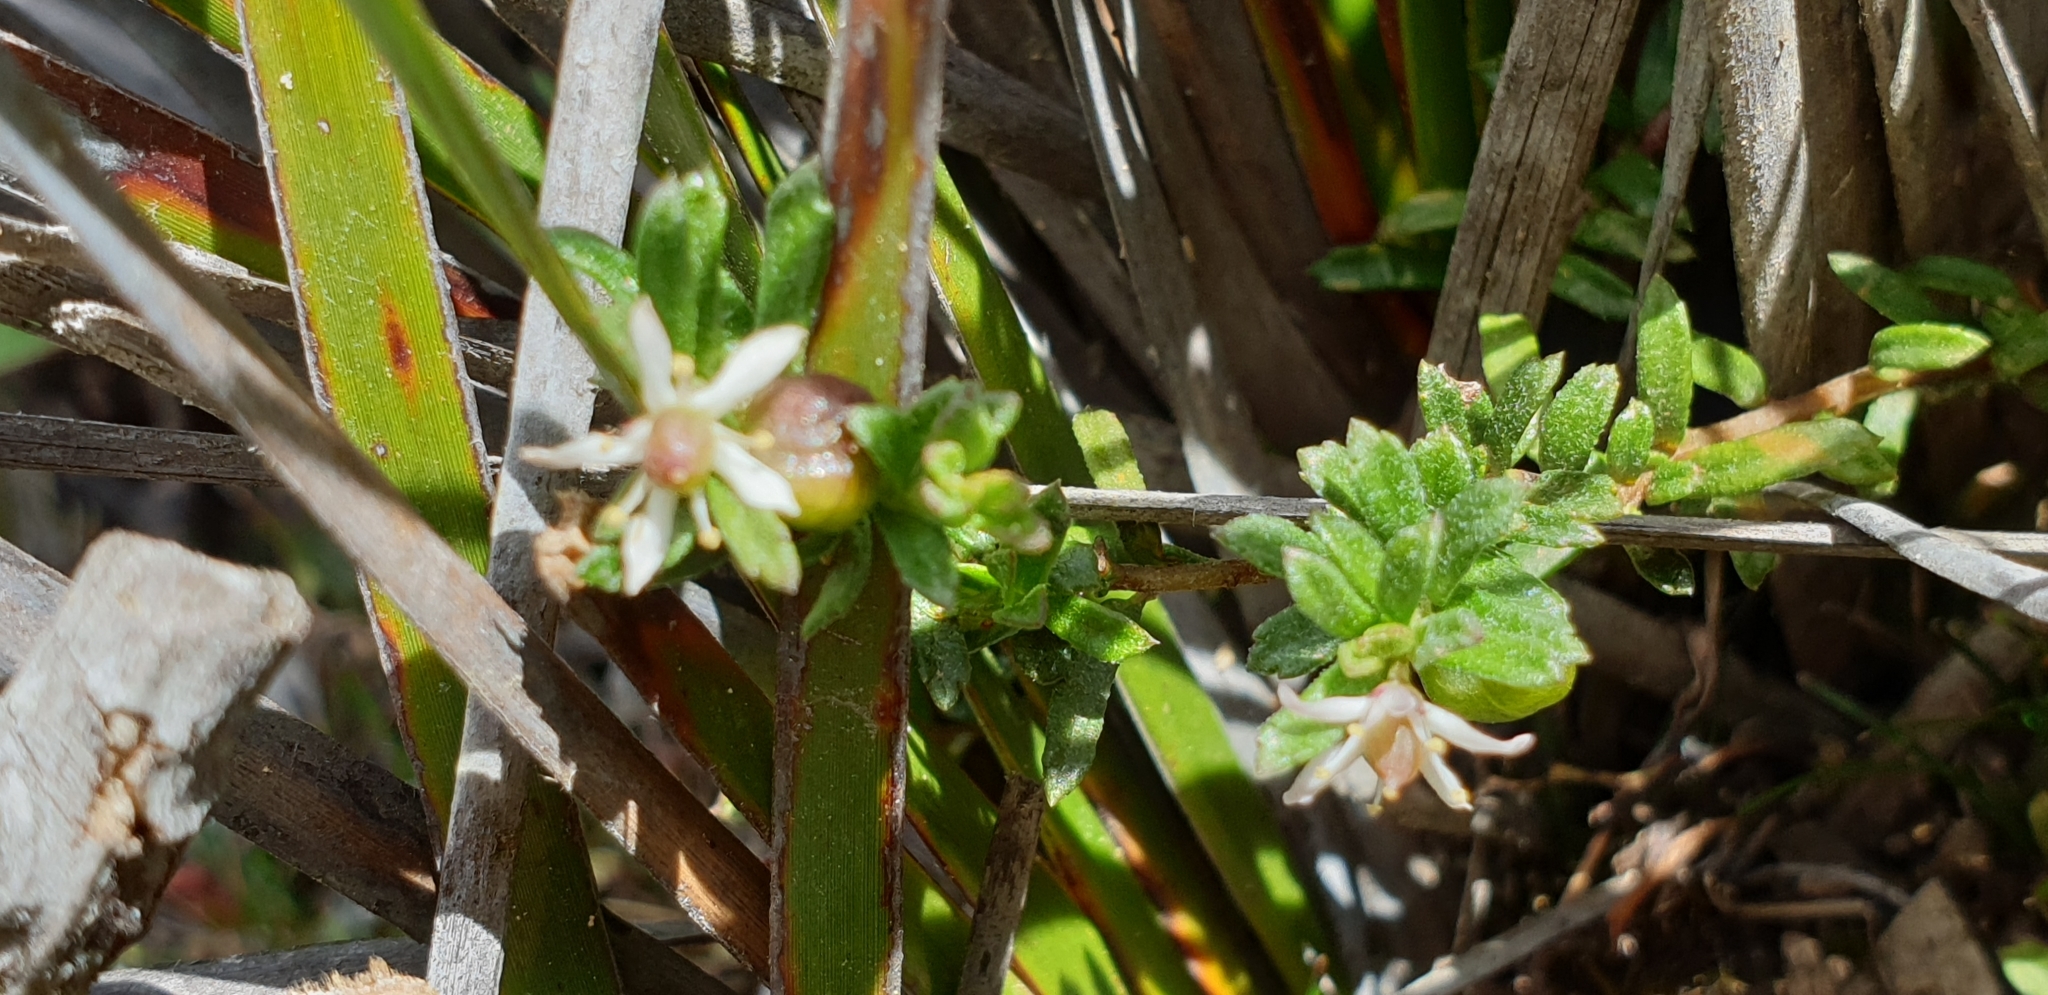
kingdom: Plantae
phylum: Tracheophyta
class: Magnoliopsida
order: Apiales
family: Pittosporaceae
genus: Rhytidosporum
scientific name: Rhytidosporum procumbens
